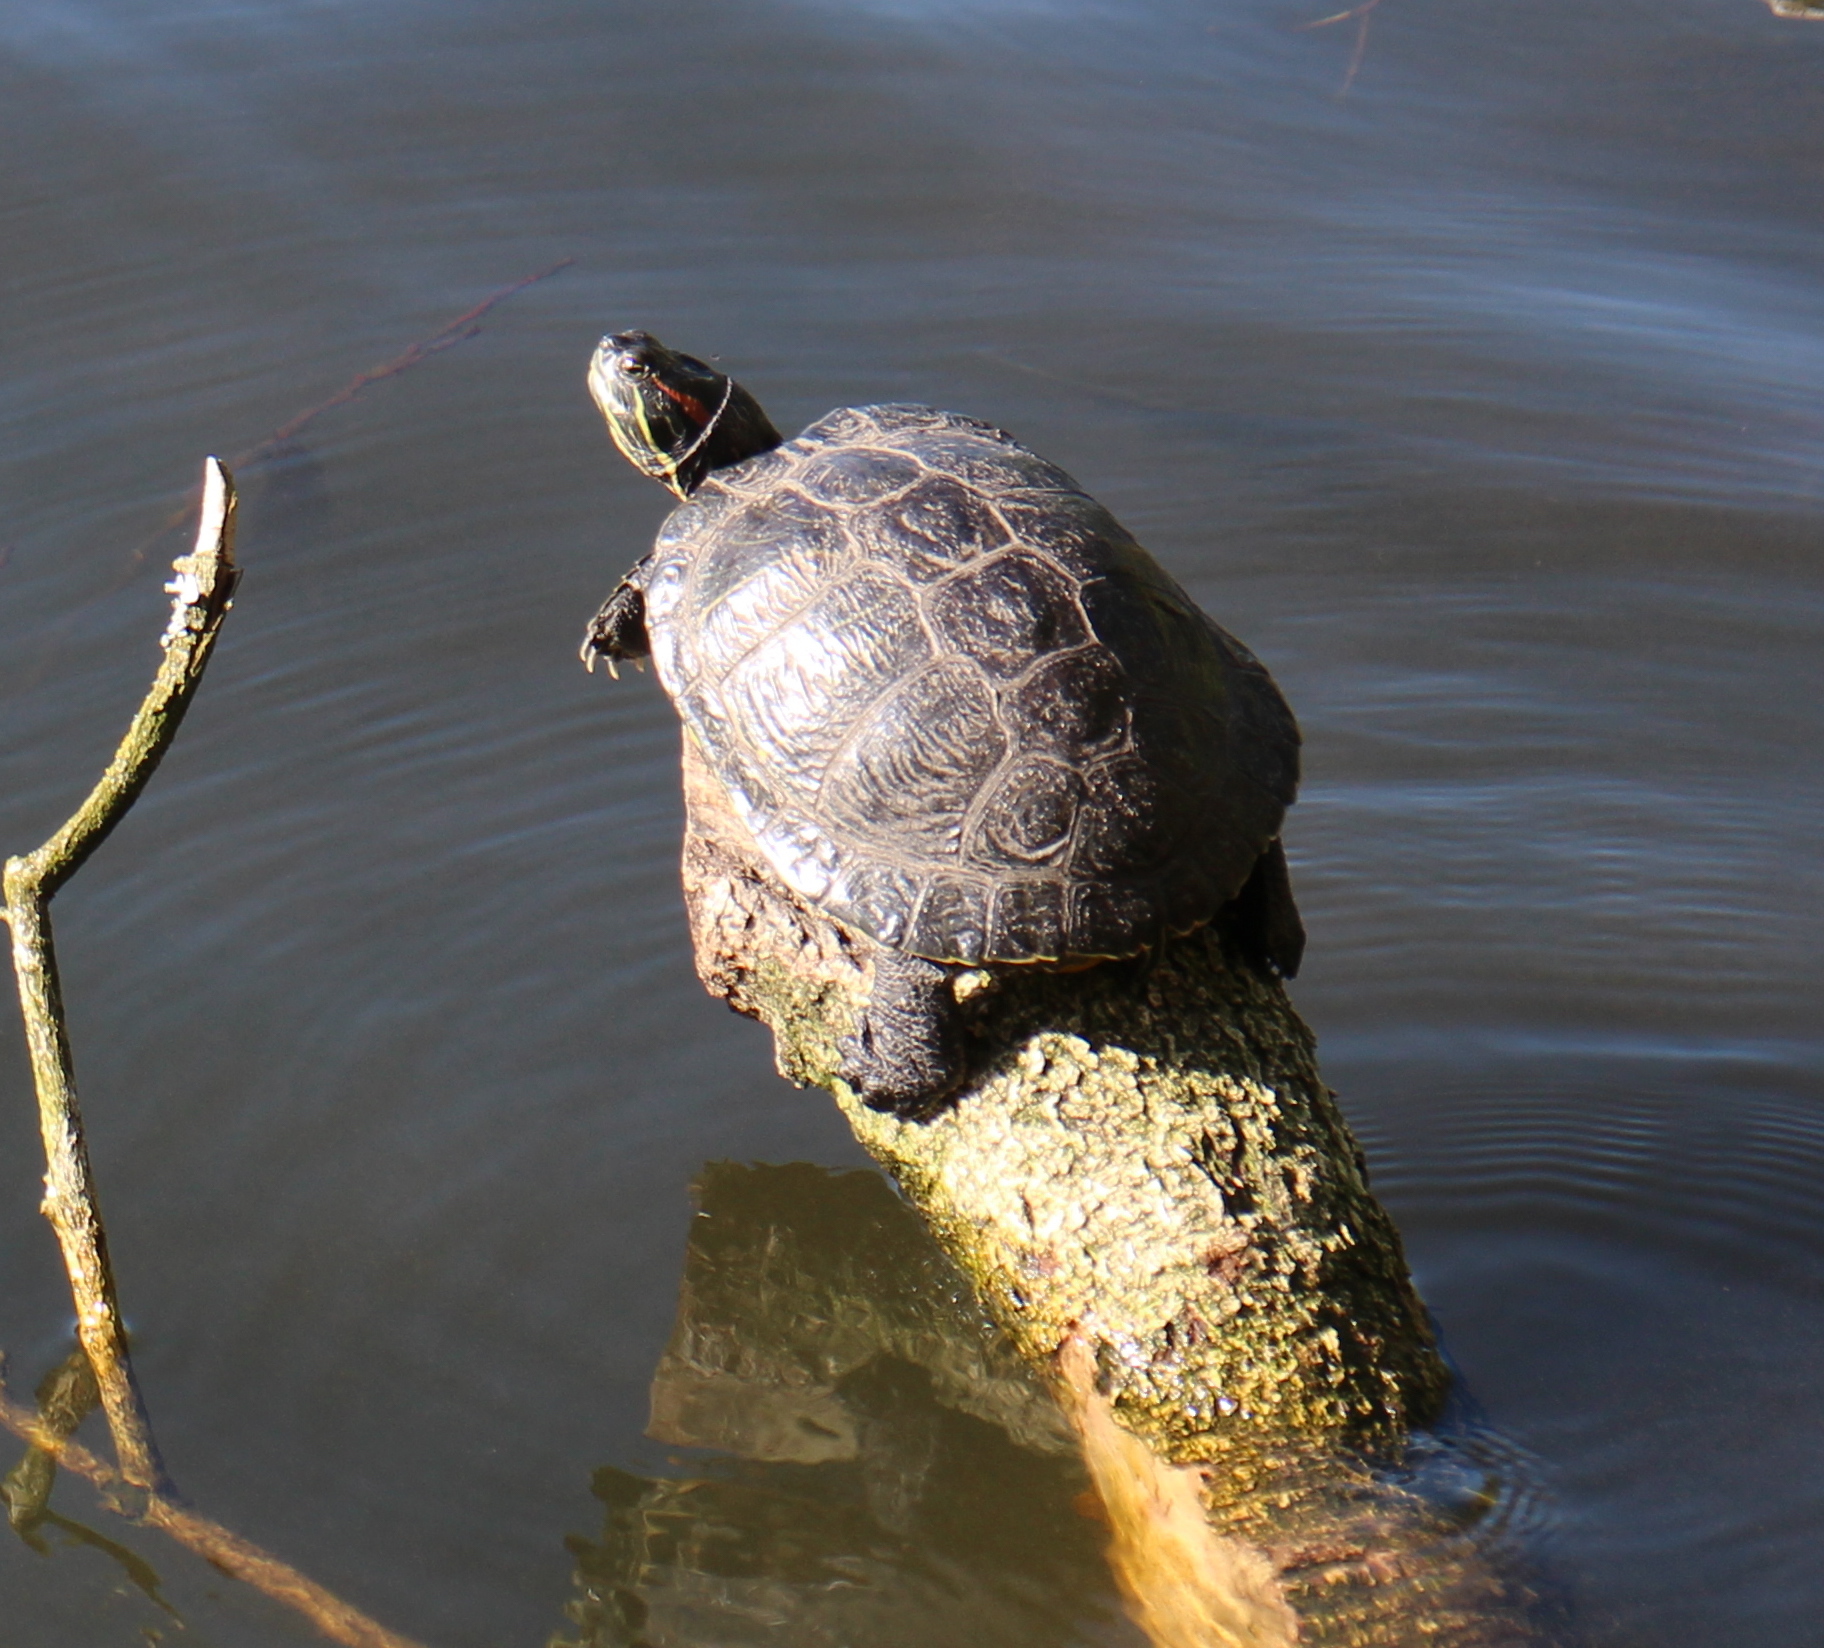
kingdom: Animalia
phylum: Chordata
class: Testudines
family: Emydidae
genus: Trachemys
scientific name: Trachemys scripta
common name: Slider
